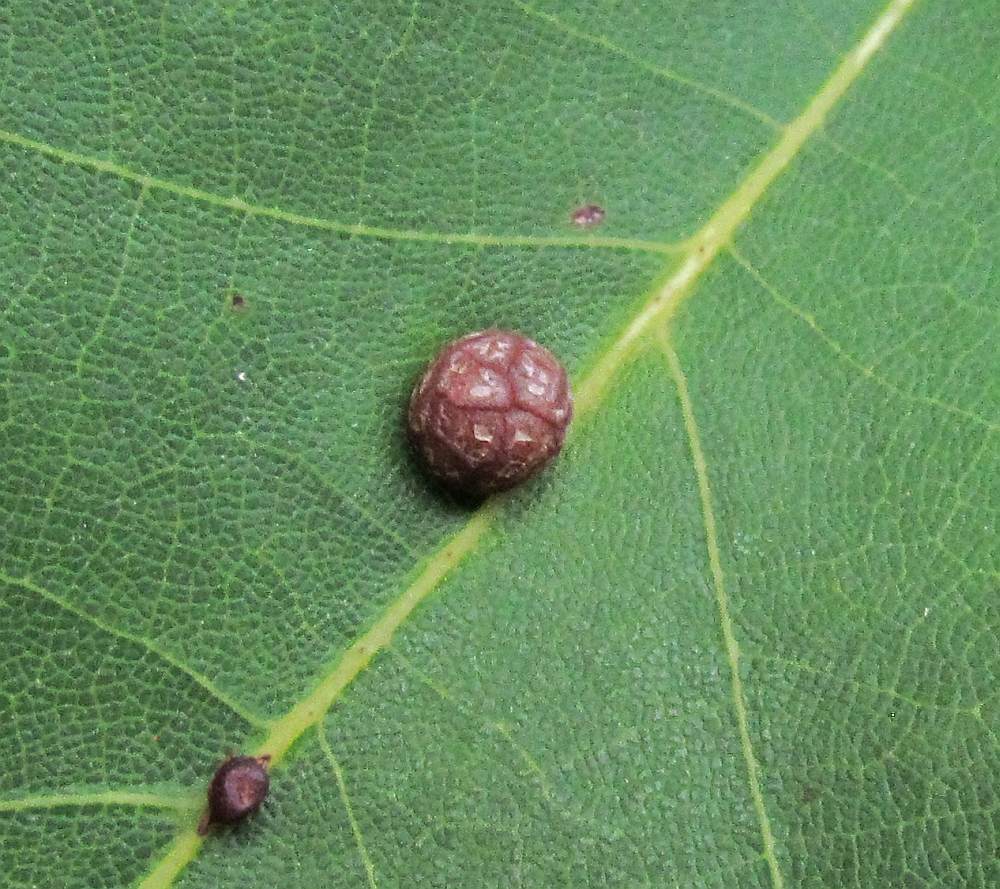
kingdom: Animalia
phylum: Arthropoda
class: Insecta
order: Diptera
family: Cecidomyiidae
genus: Polystepha
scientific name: Polystepha pilulae
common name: Oak leaf gall midge
